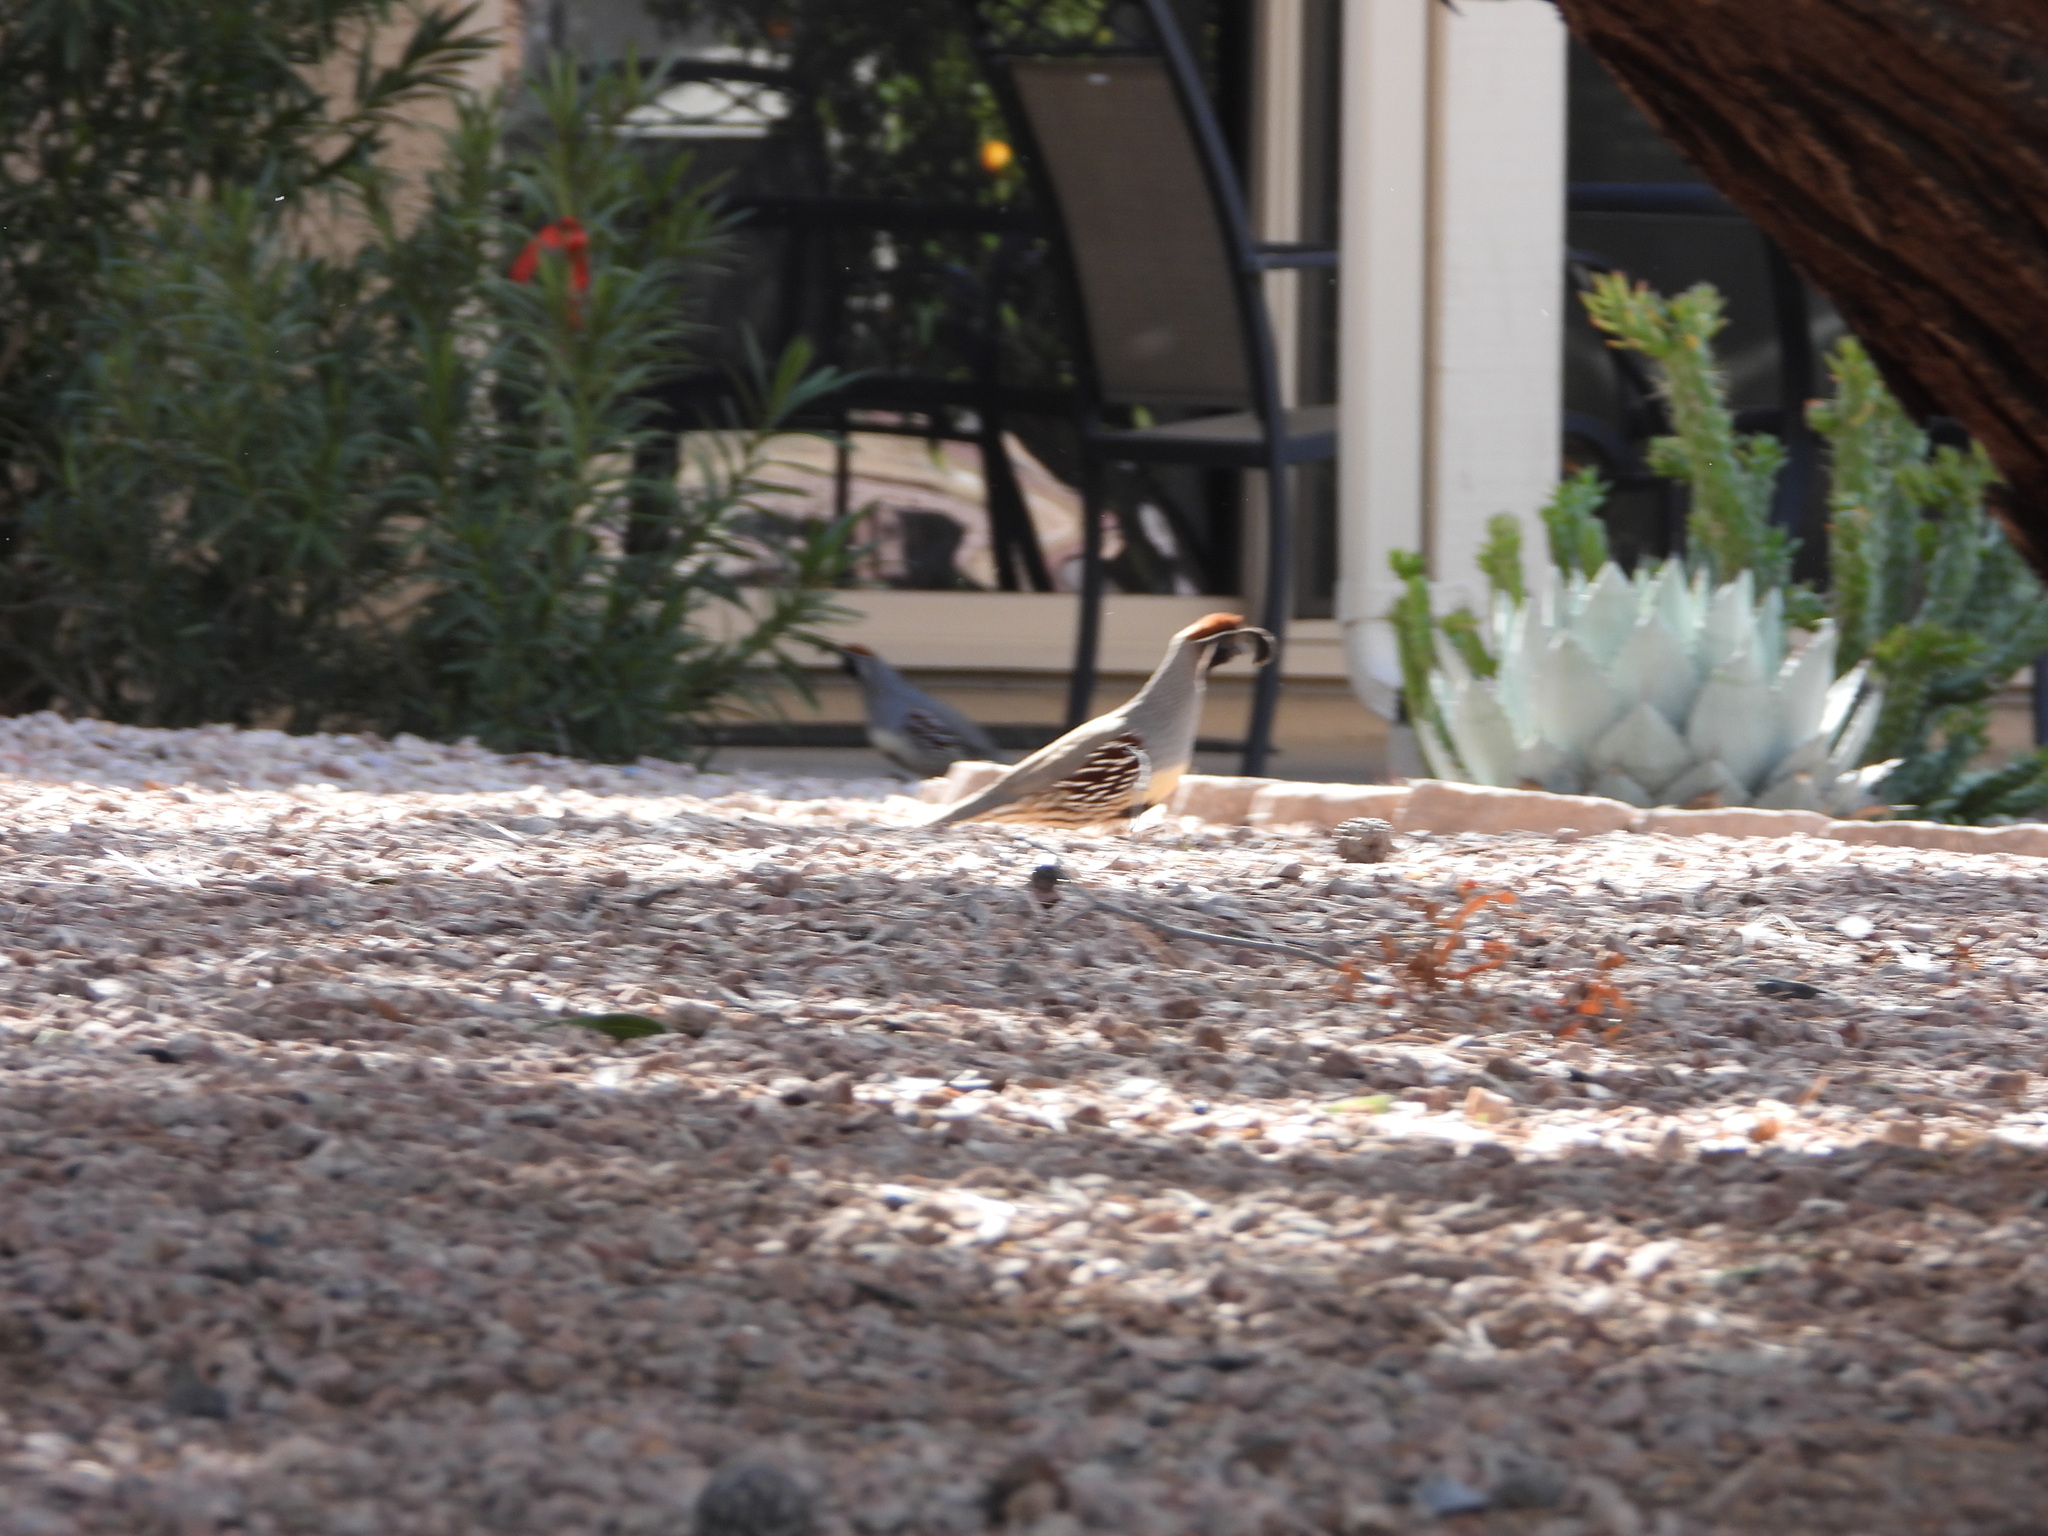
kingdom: Animalia
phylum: Chordata
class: Aves
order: Galliformes
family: Odontophoridae
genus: Callipepla
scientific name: Callipepla gambelii
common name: Gambel's quail
